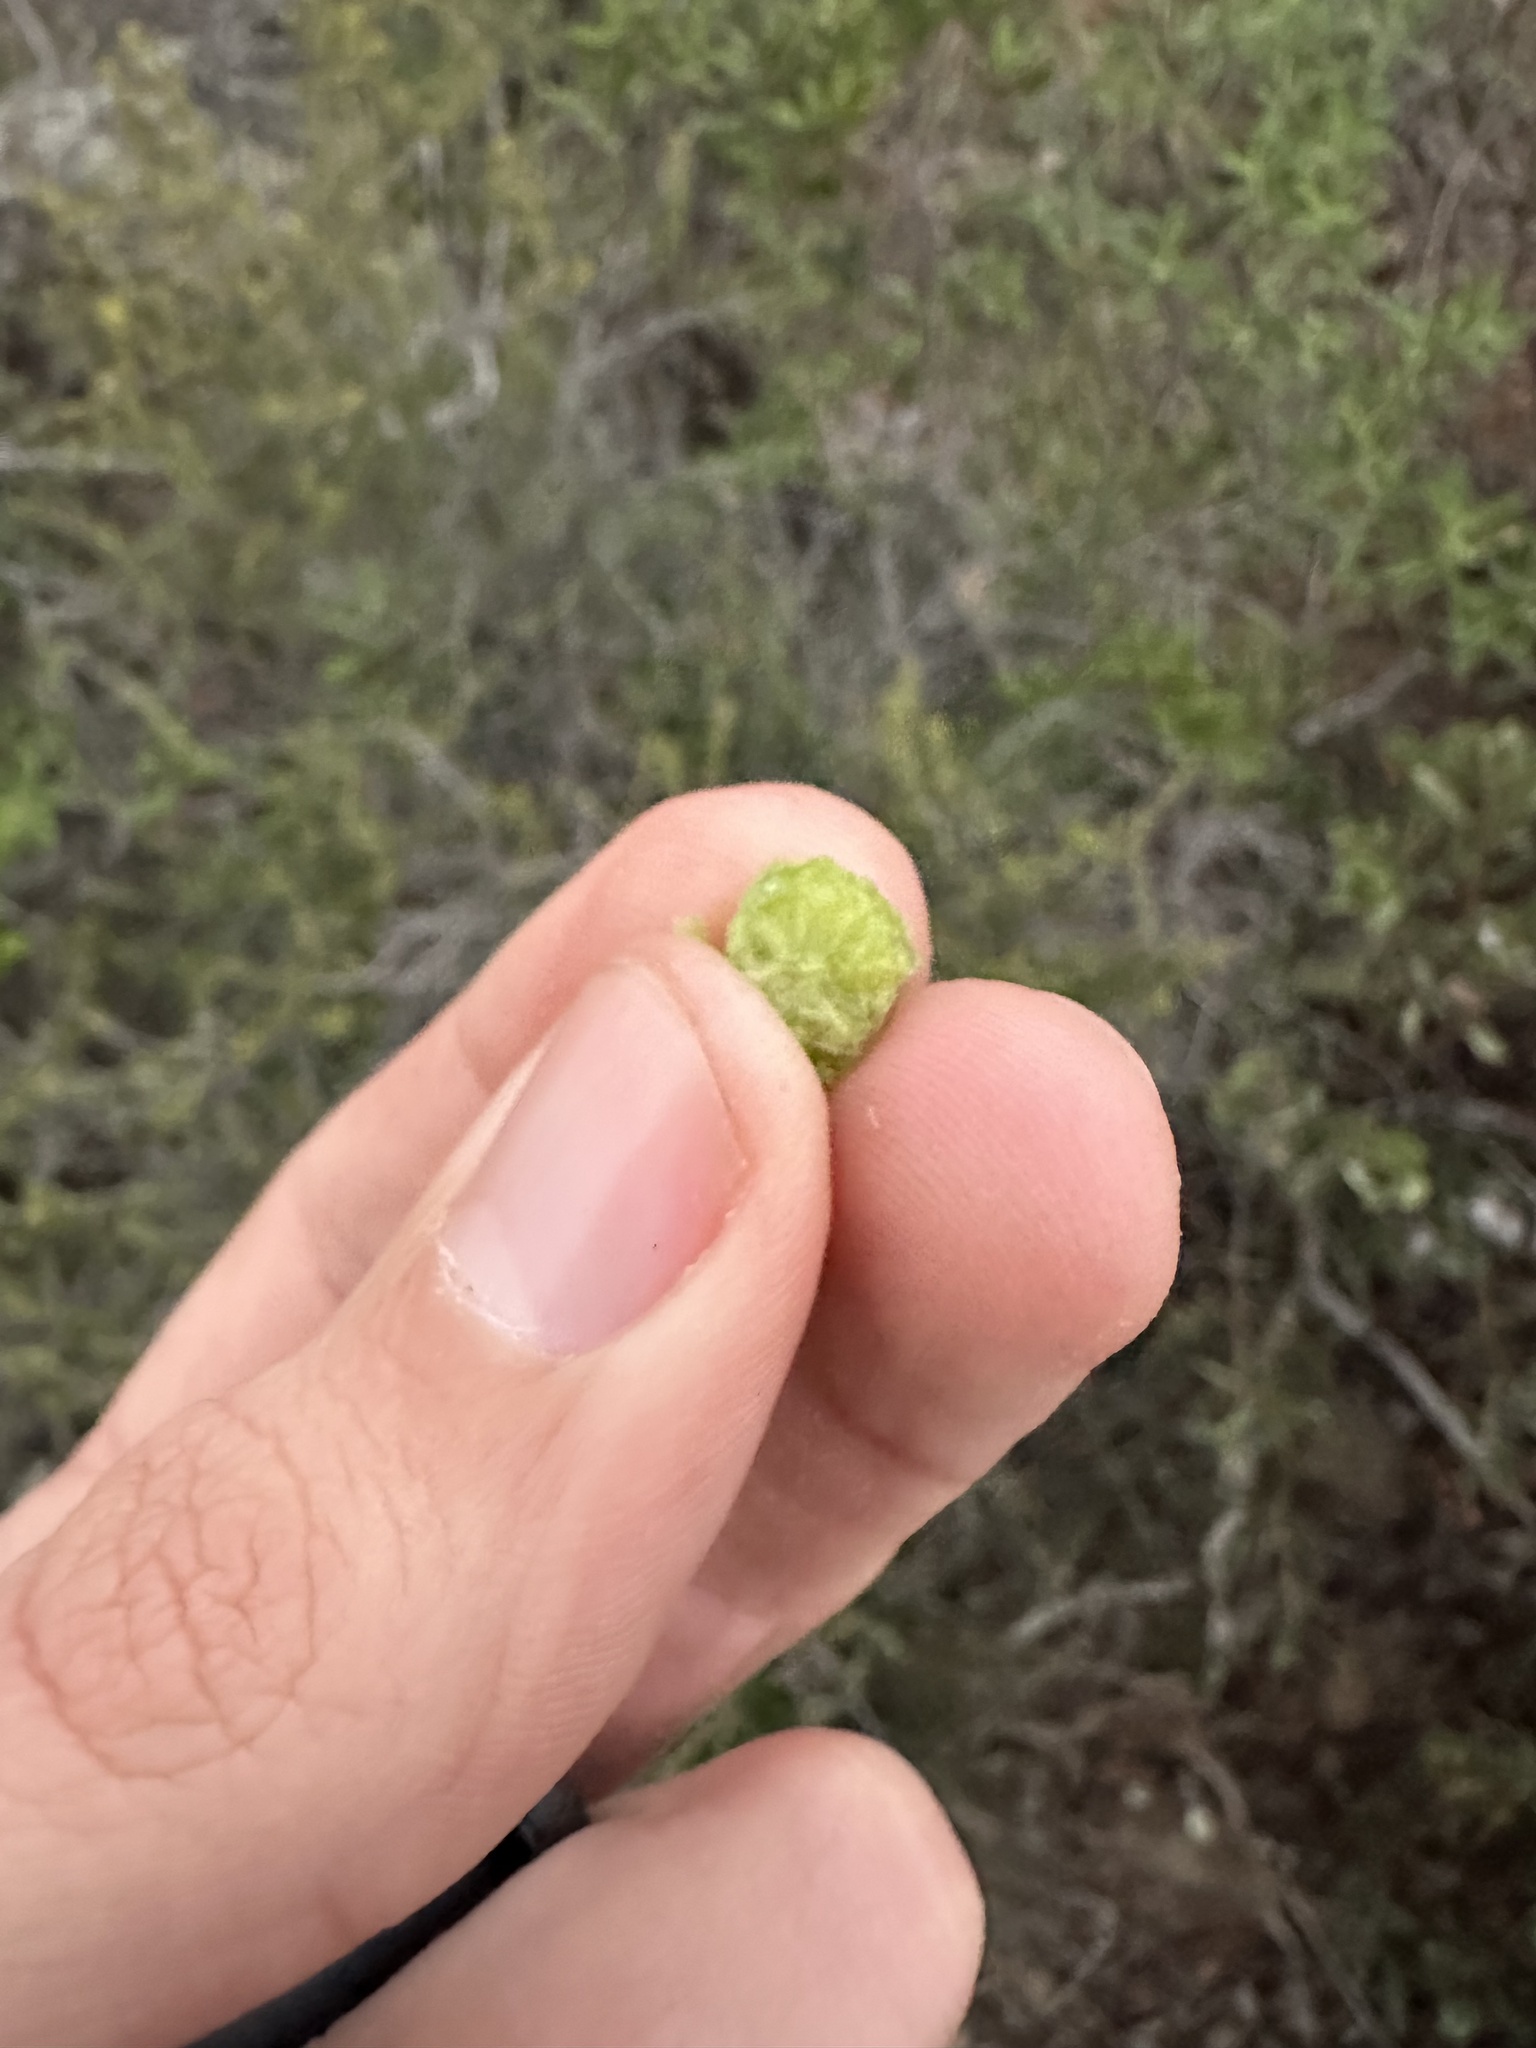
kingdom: Plantae
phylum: Tracheophyta
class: Magnoliopsida
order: Ericales
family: Ericaceae
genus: Arctostaphylos
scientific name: Arctostaphylos rainbowensis
